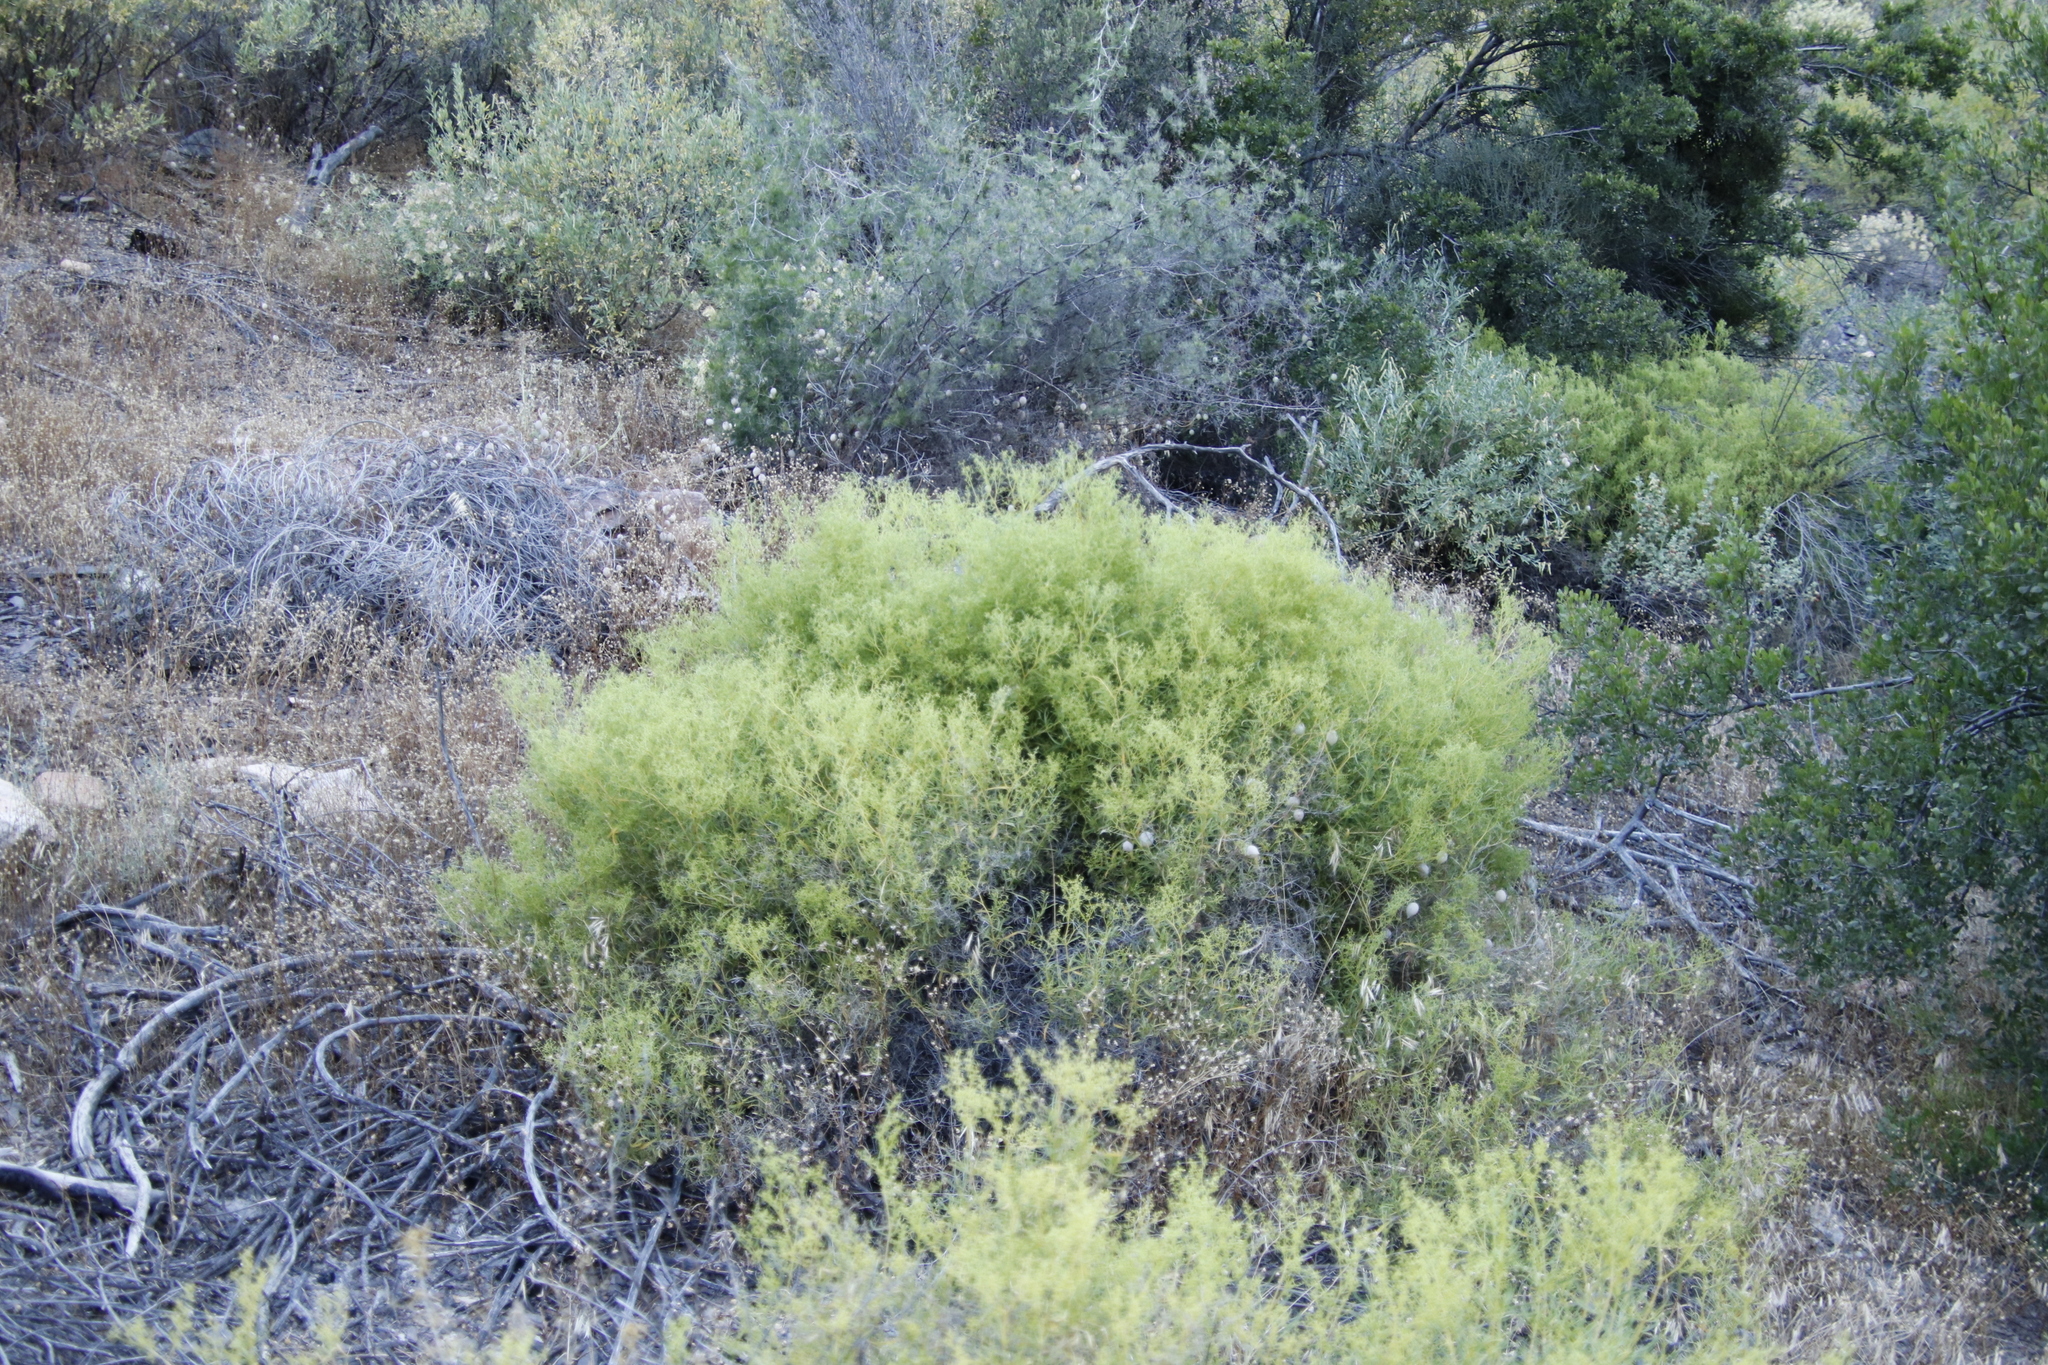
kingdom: Plantae
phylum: Tracheophyta
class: Magnoliopsida
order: Caryophyllales
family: Aizoaceae
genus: Aizoon
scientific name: Aizoon africanum
